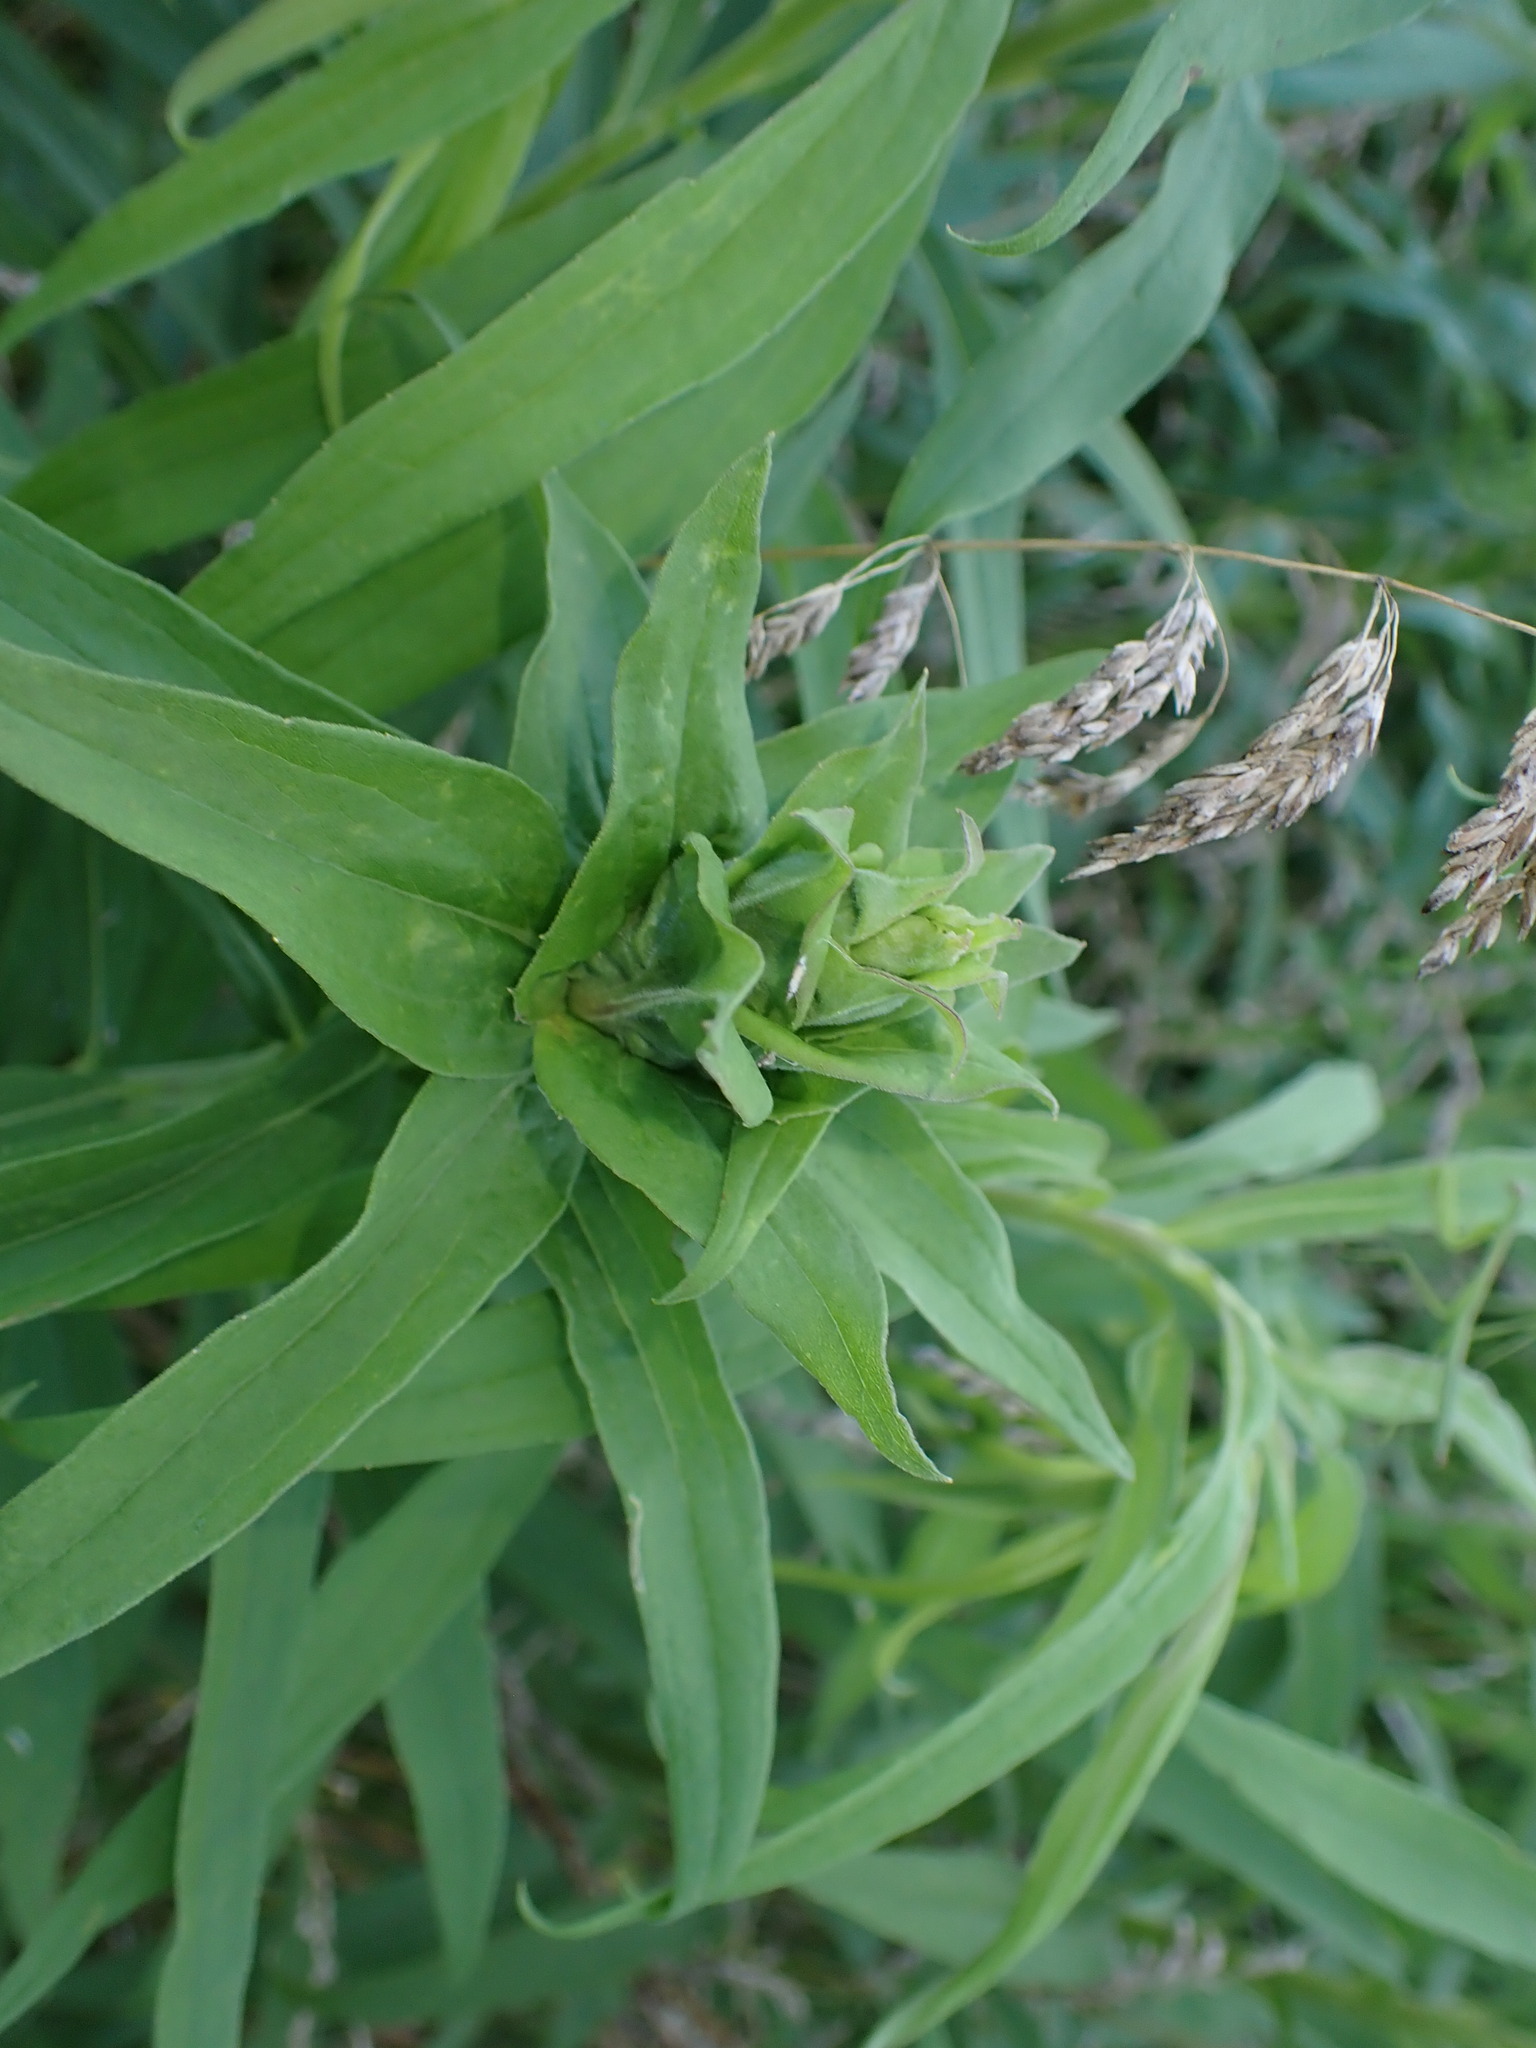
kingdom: Animalia
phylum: Arthropoda
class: Insecta
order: Diptera
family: Cecidomyiidae
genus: Rhopalomyia
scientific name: Rhopalomyia solidaginis
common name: Goldenrod bunch gall midge
